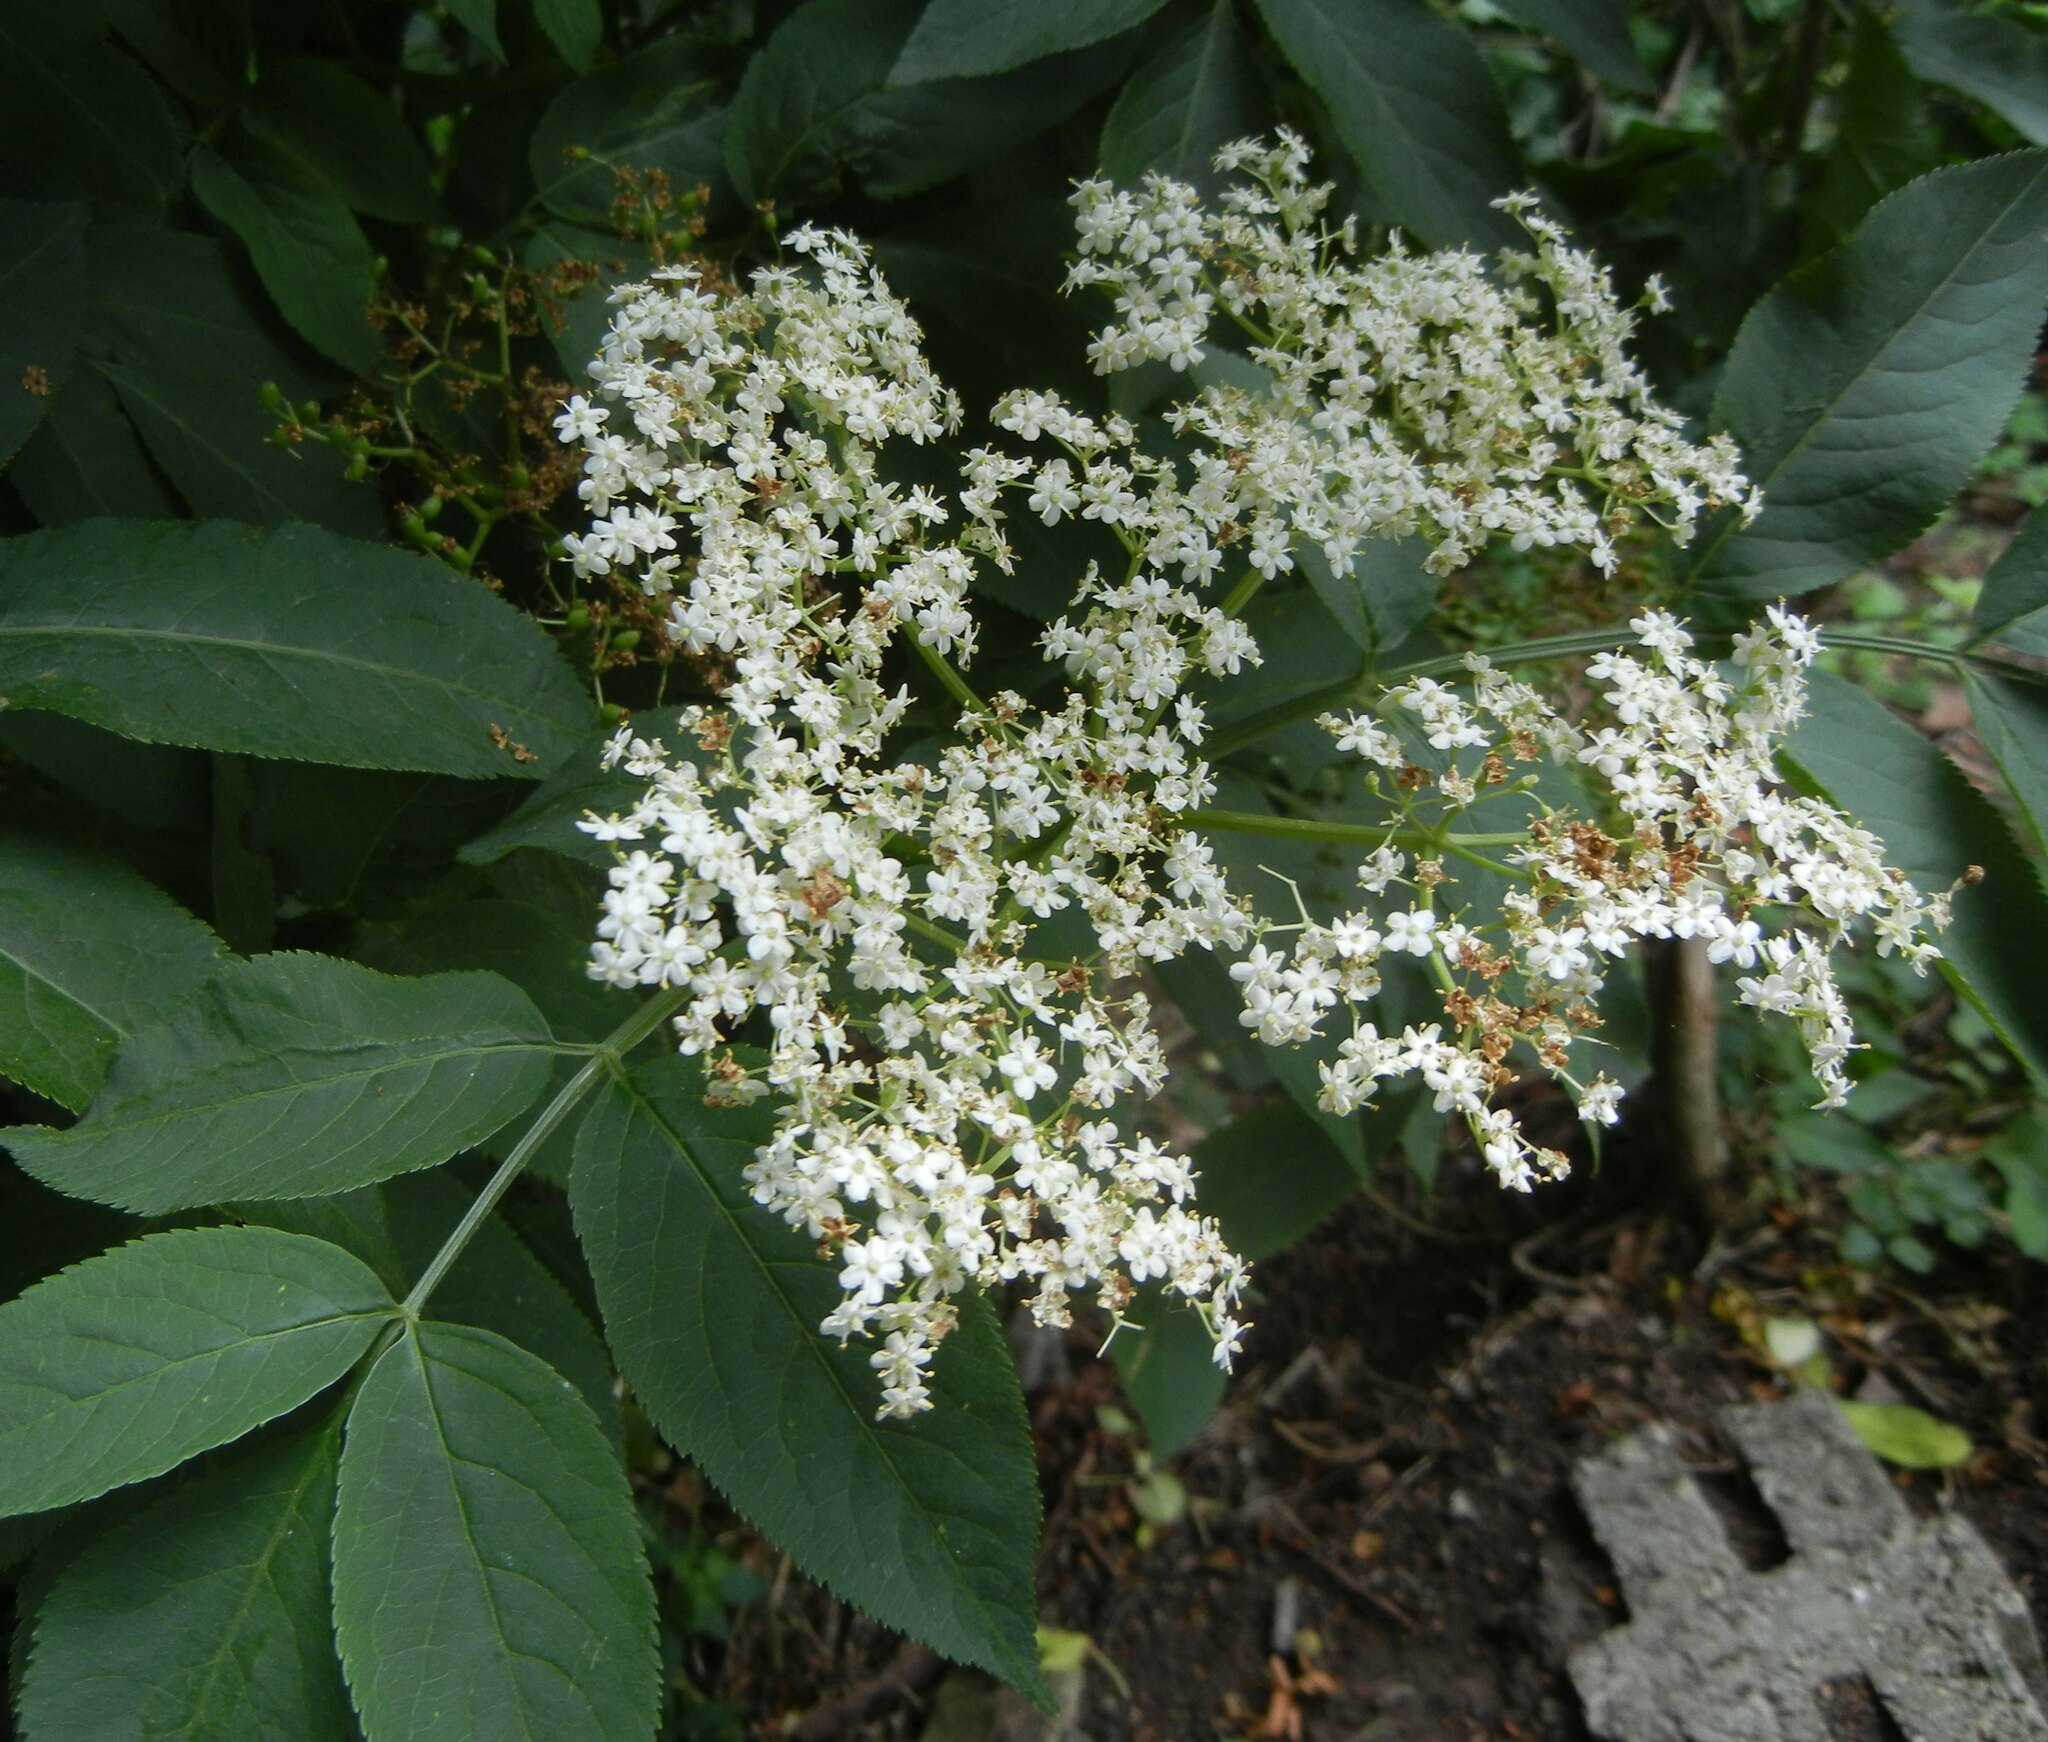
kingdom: Plantae
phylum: Tracheophyta
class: Magnoliopsida
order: Dipsacales
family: Viburnaceae
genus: Sambucus
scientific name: Sambucus nigra
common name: Elder
